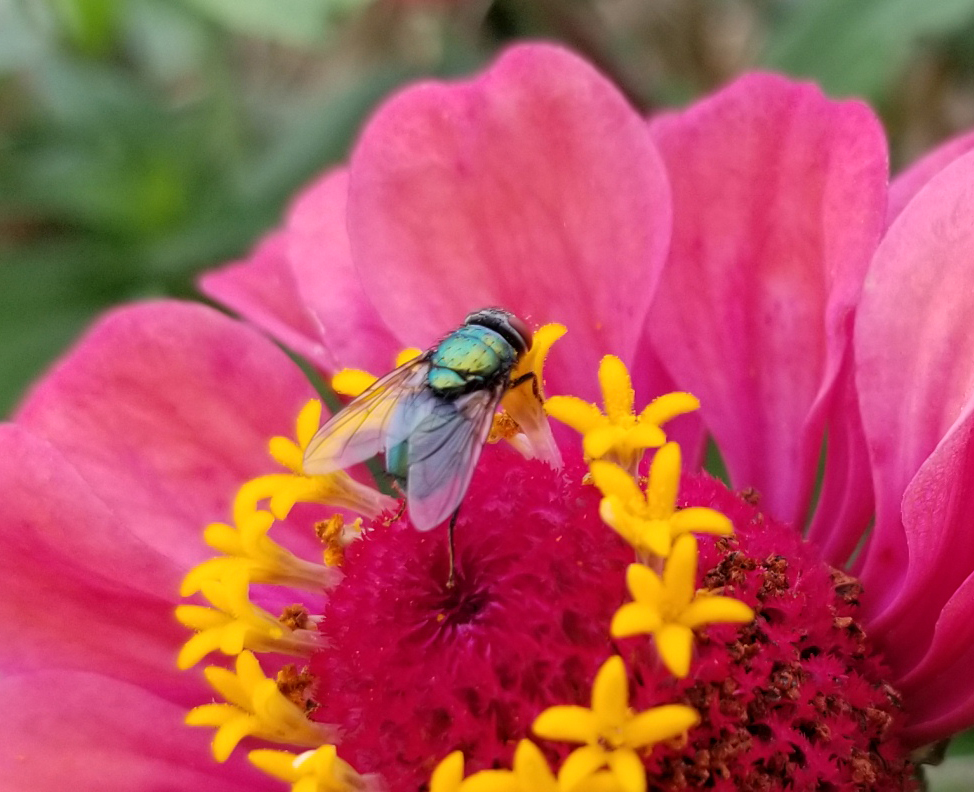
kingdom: Animalia
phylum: Arthropoda
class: Insecta
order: Diptera
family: Calliphoridae
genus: Lucilia
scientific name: Lucilia sericata
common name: Blow fly
